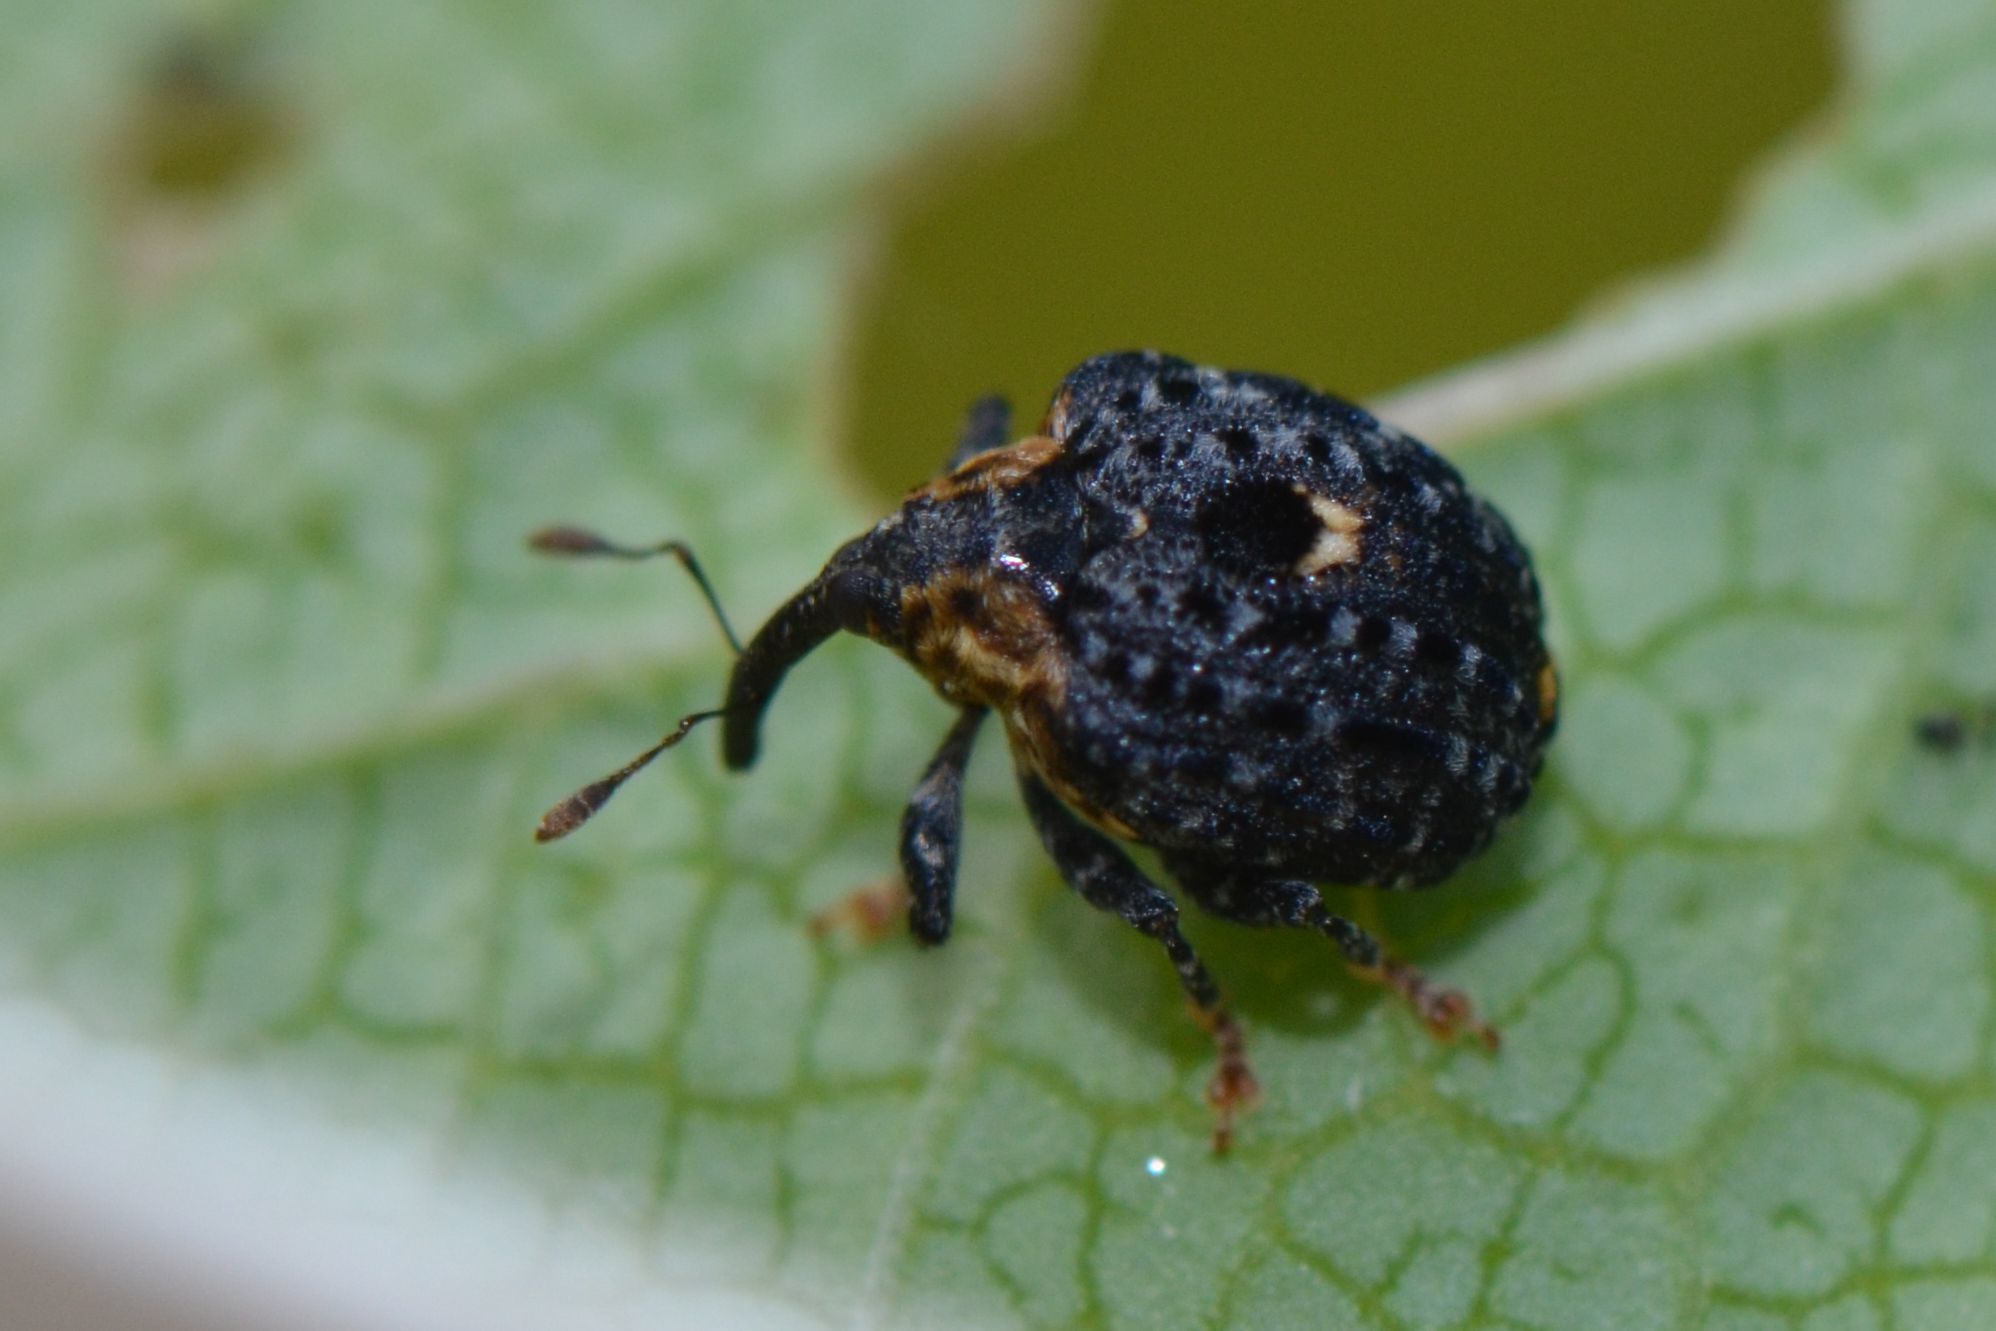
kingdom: Animalia
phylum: Arthropoda
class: Insecta
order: Coleoptera
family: Curculionidae
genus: Cionus
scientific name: Cionus tuberculosus
